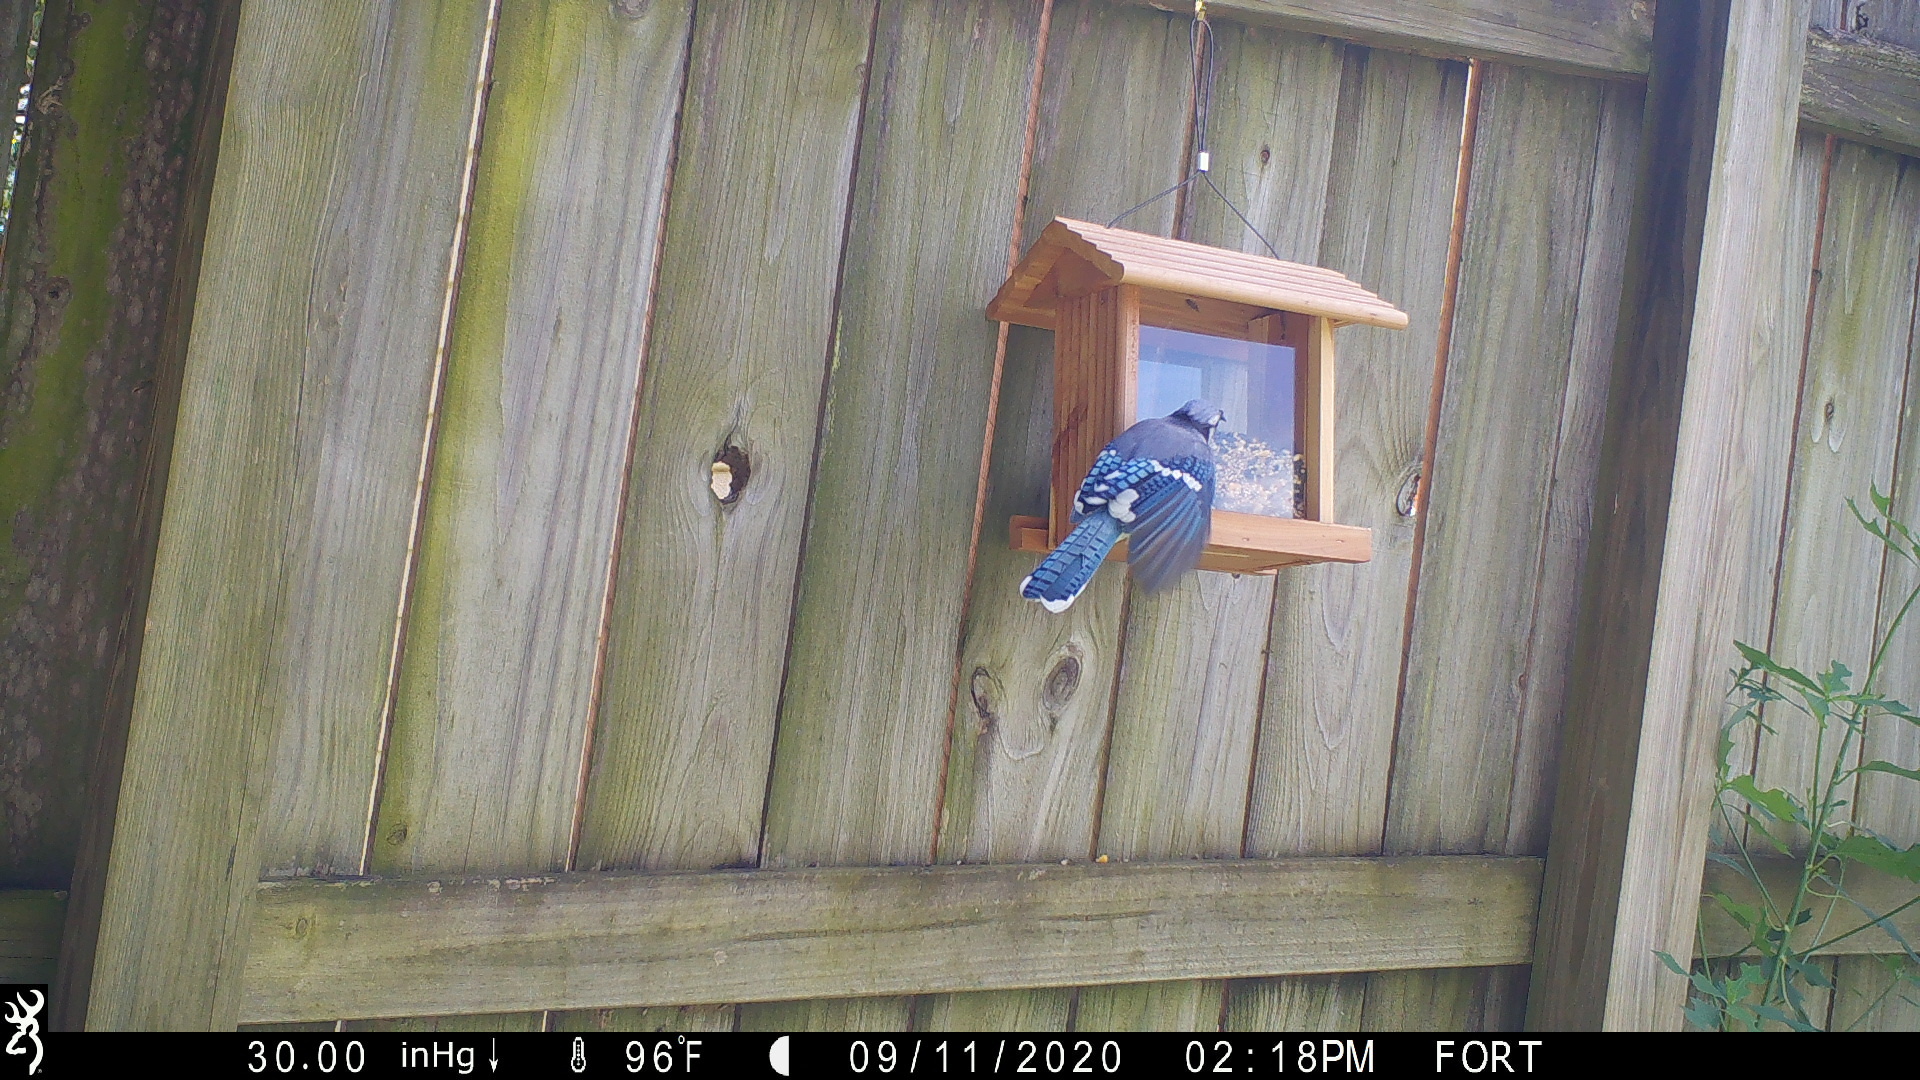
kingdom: Animalia
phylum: Chordata
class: Aves
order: Passeriformes
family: Corvidae
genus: Cyanocitta
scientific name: Cyanocitta cristata
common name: Blue jay
